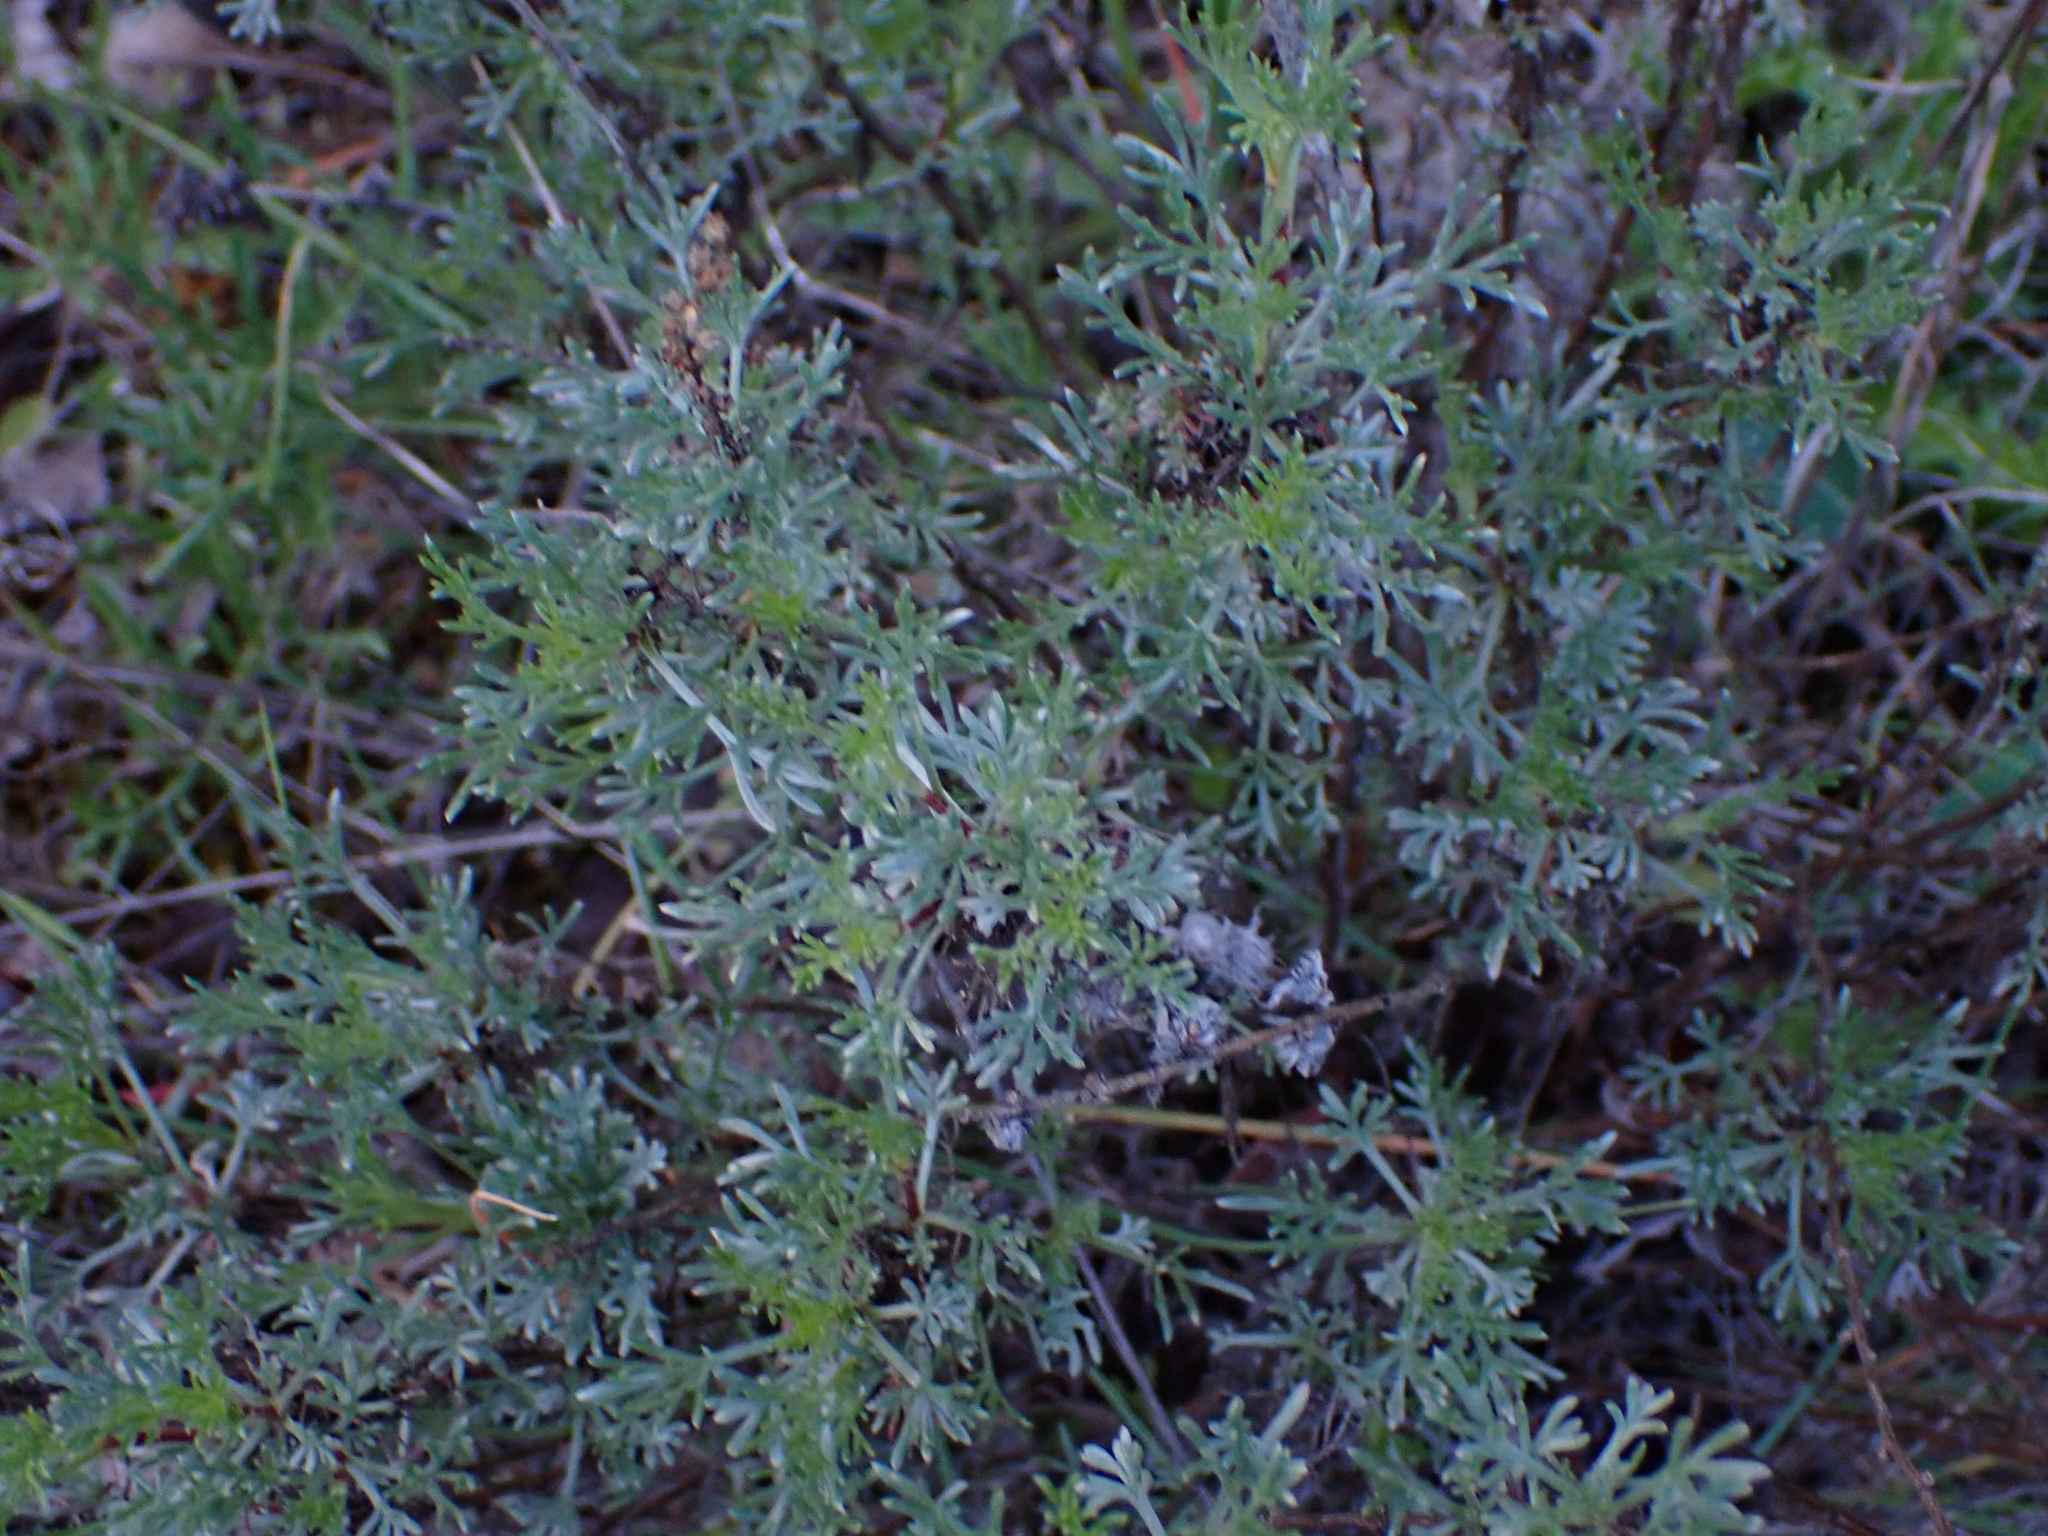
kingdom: Plantae
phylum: Tracheophyta
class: Magnoliopsida
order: Asterales
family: Asteraceae
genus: Artemisia
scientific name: Artemisia campestris
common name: Field wormwood
